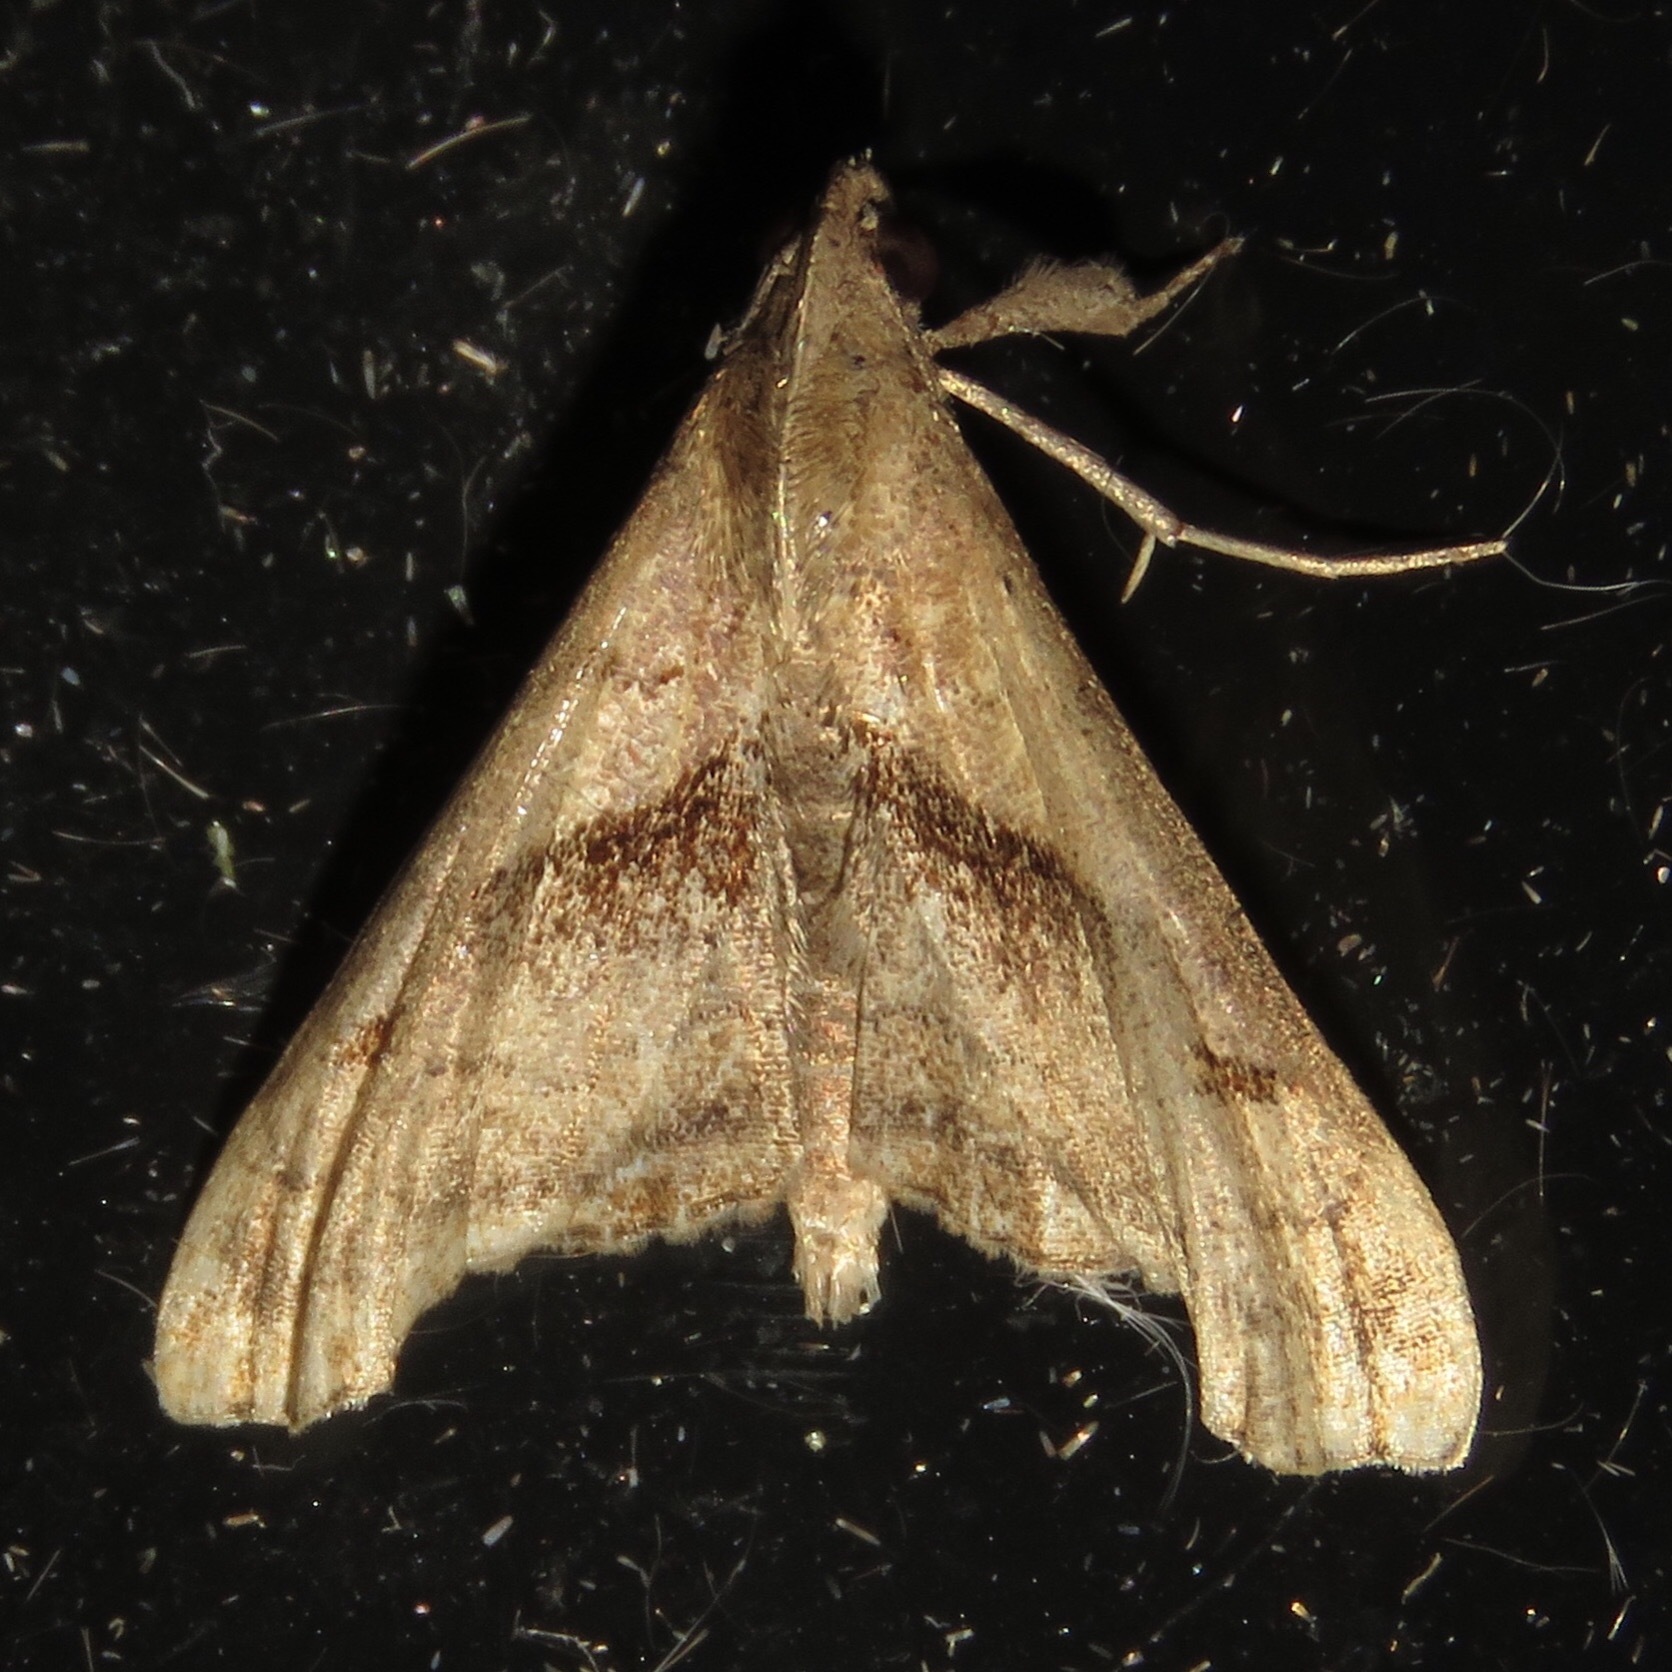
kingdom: Animalia
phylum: Arthropoda
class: Insecta
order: Lepidoptera
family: Erebidae
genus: Palthis
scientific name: Palthis angulalis
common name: Dark-spotted palthis moth
